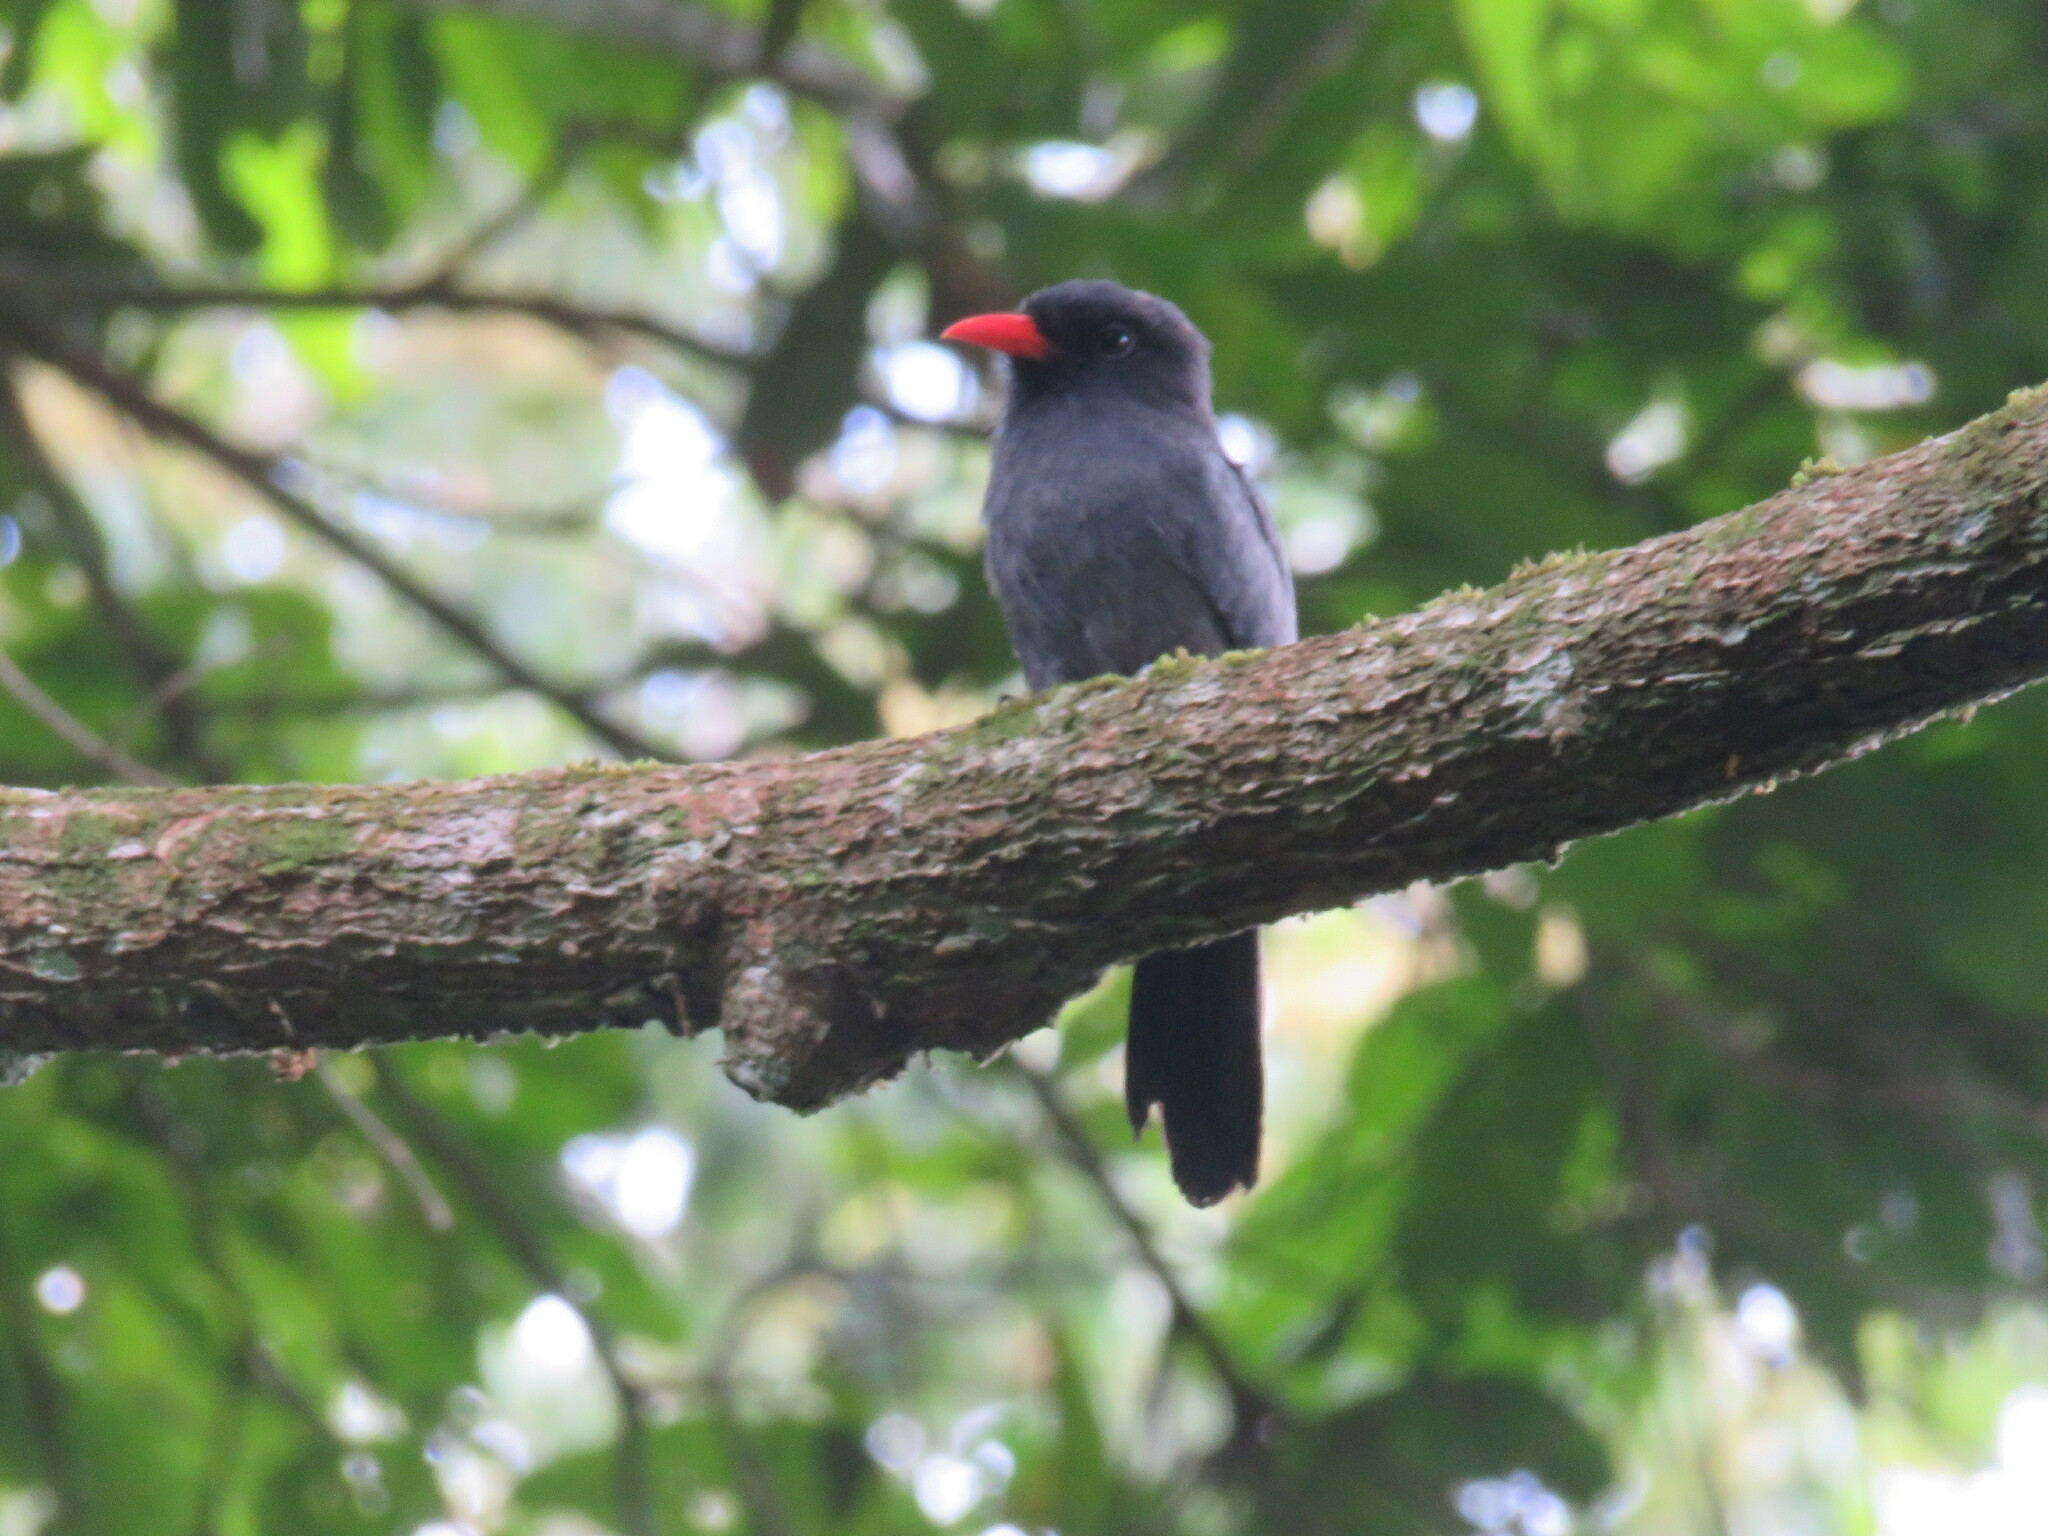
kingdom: Animalia
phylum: Chordata
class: Aves
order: Piciformes
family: Bucconidae
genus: Monasa
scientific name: Monasa nigrifrons
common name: Black-fronted nunbird
